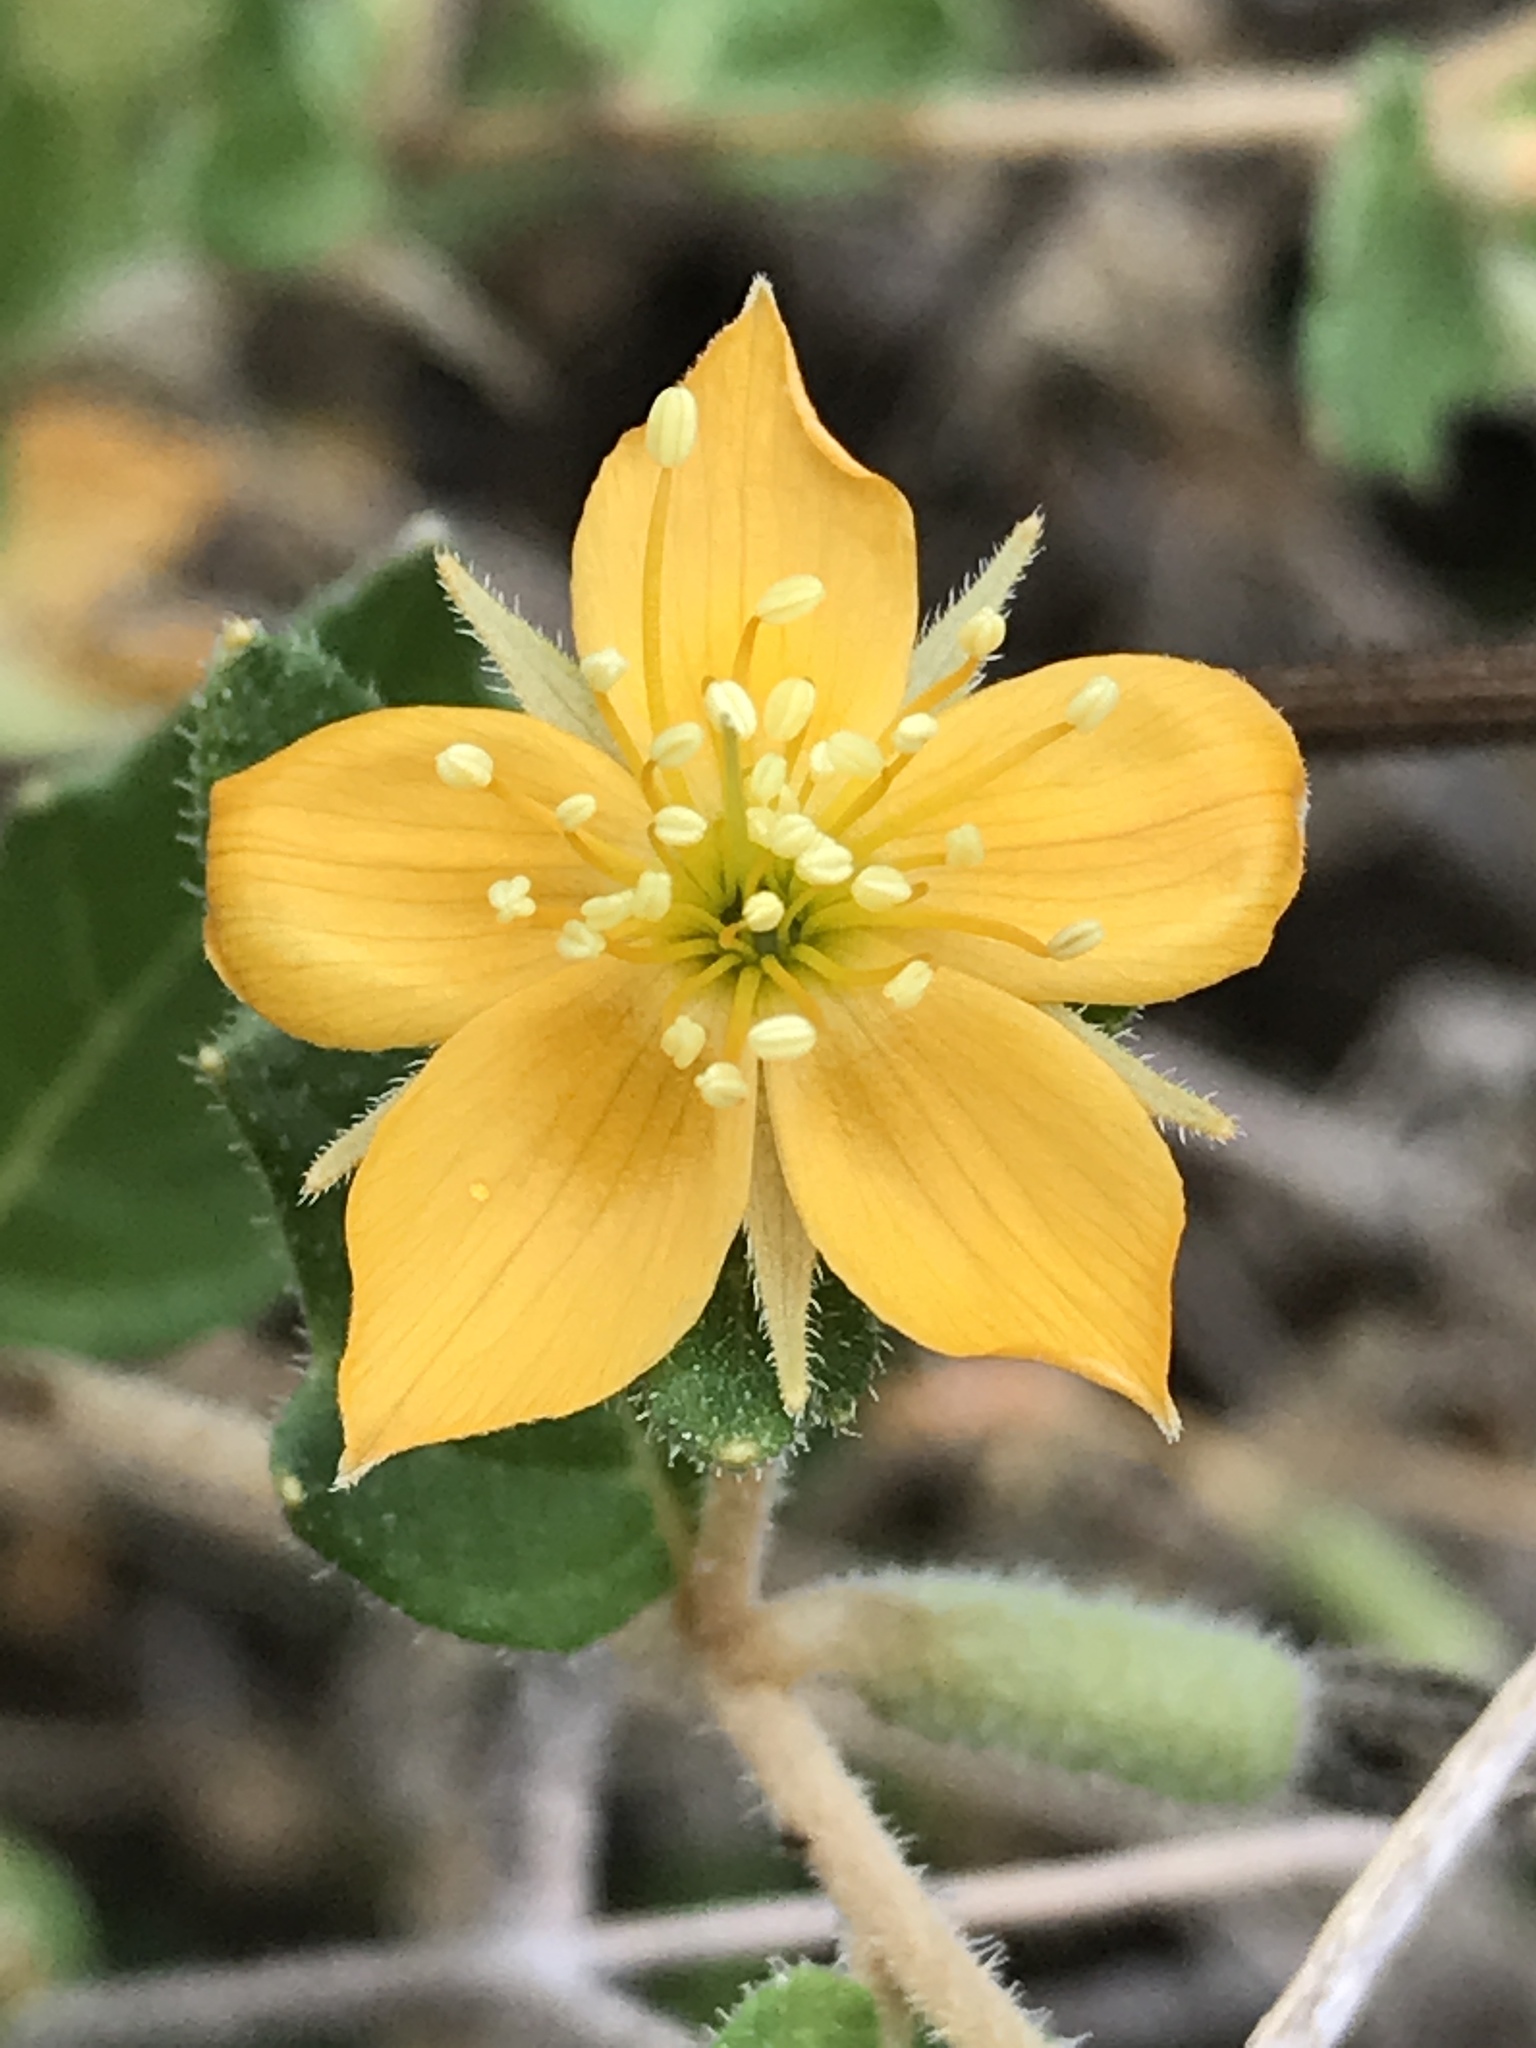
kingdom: Plantae
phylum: Tracheophyta
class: Magnoliopsida
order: Cornales
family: Loasaceae
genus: Mentzelia
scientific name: Mentzelia oligosperma
